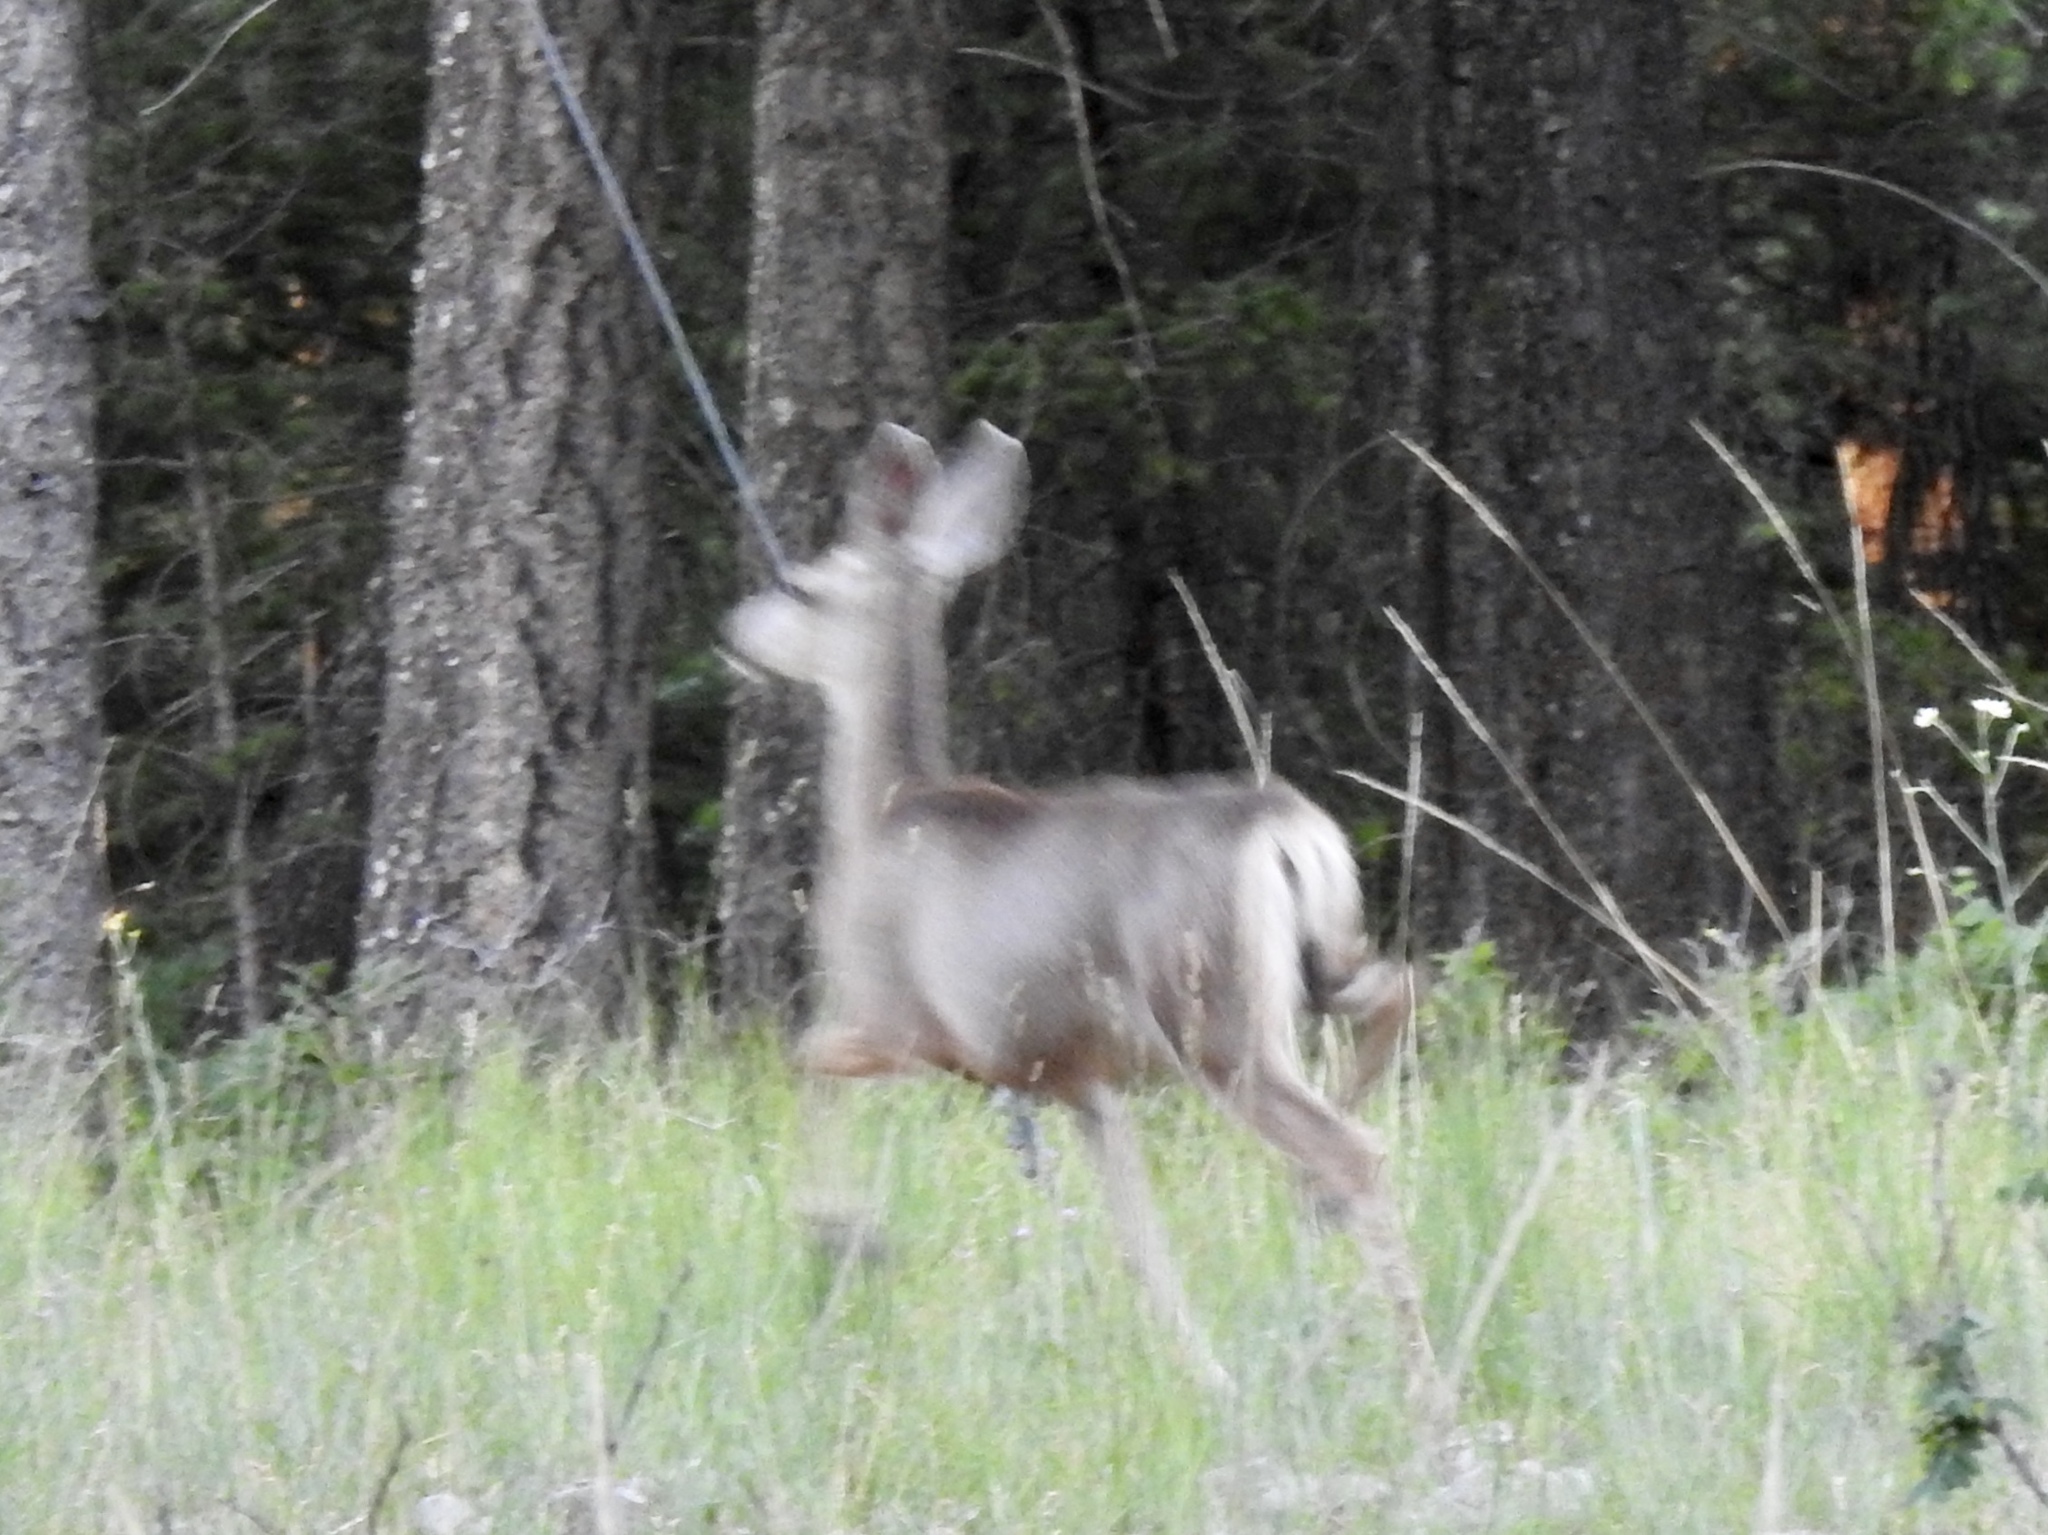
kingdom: Animalia
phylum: Chordata
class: Mammalia
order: Artiodactyla
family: Cervidae
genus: Odocoileus
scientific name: Odocoileus hemionus
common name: Mule deer
